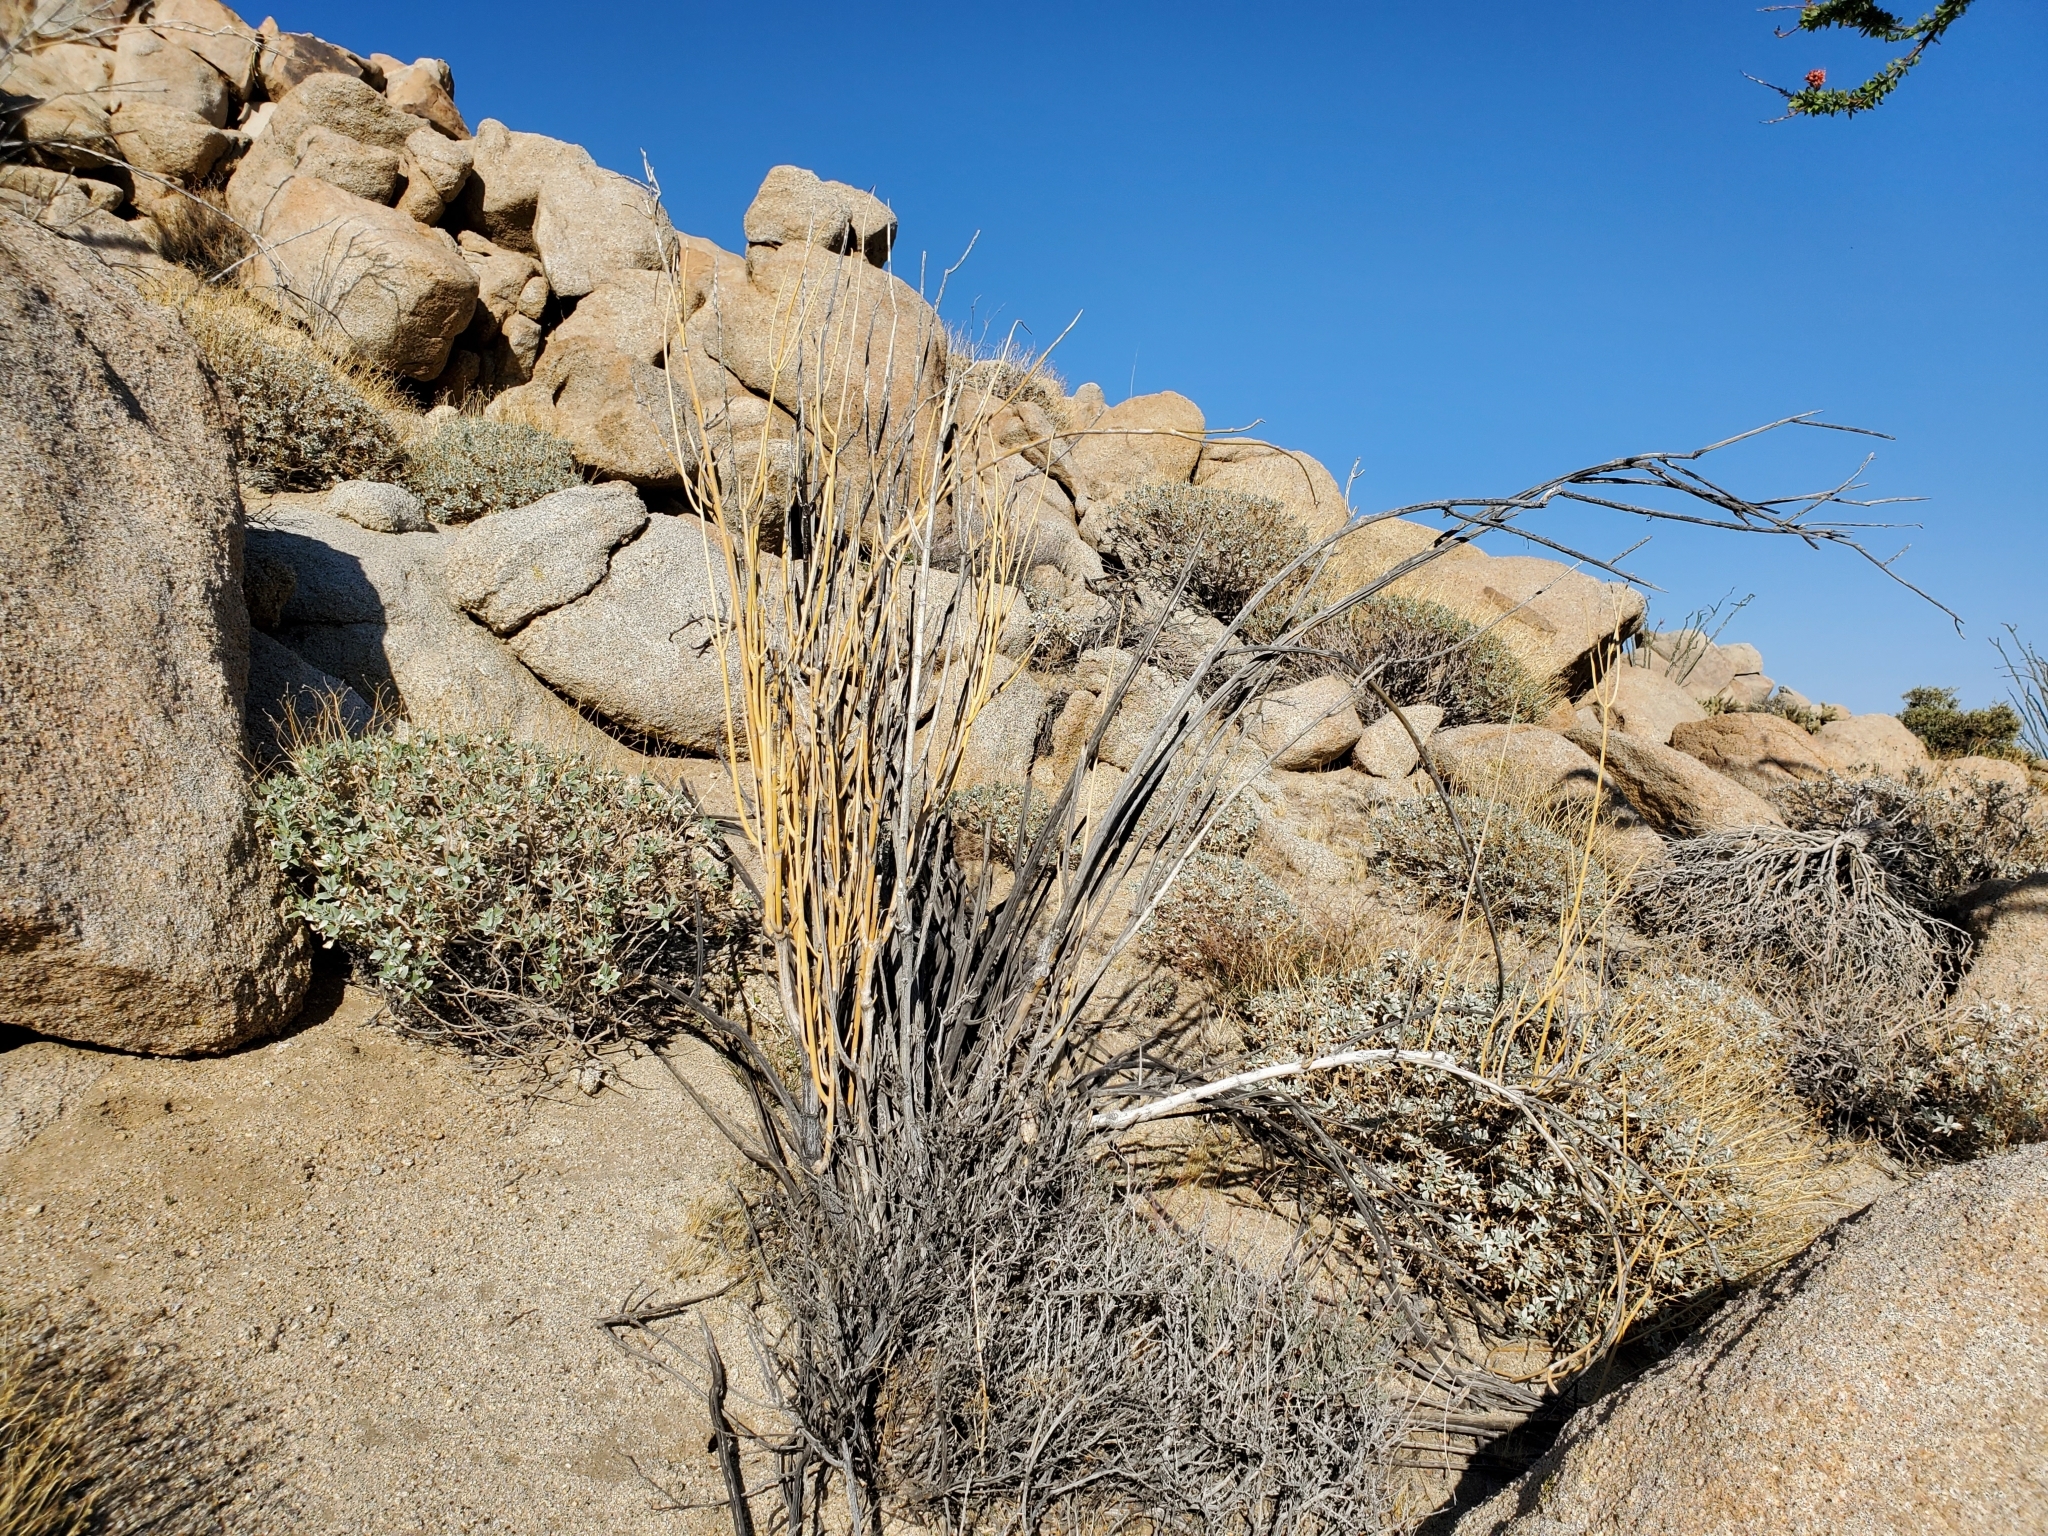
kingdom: Plantae
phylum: Tracheophyta
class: Magnoliopsida
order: Gentianales
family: Apocynaceae
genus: Asclepias
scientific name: Asclepias albicans
